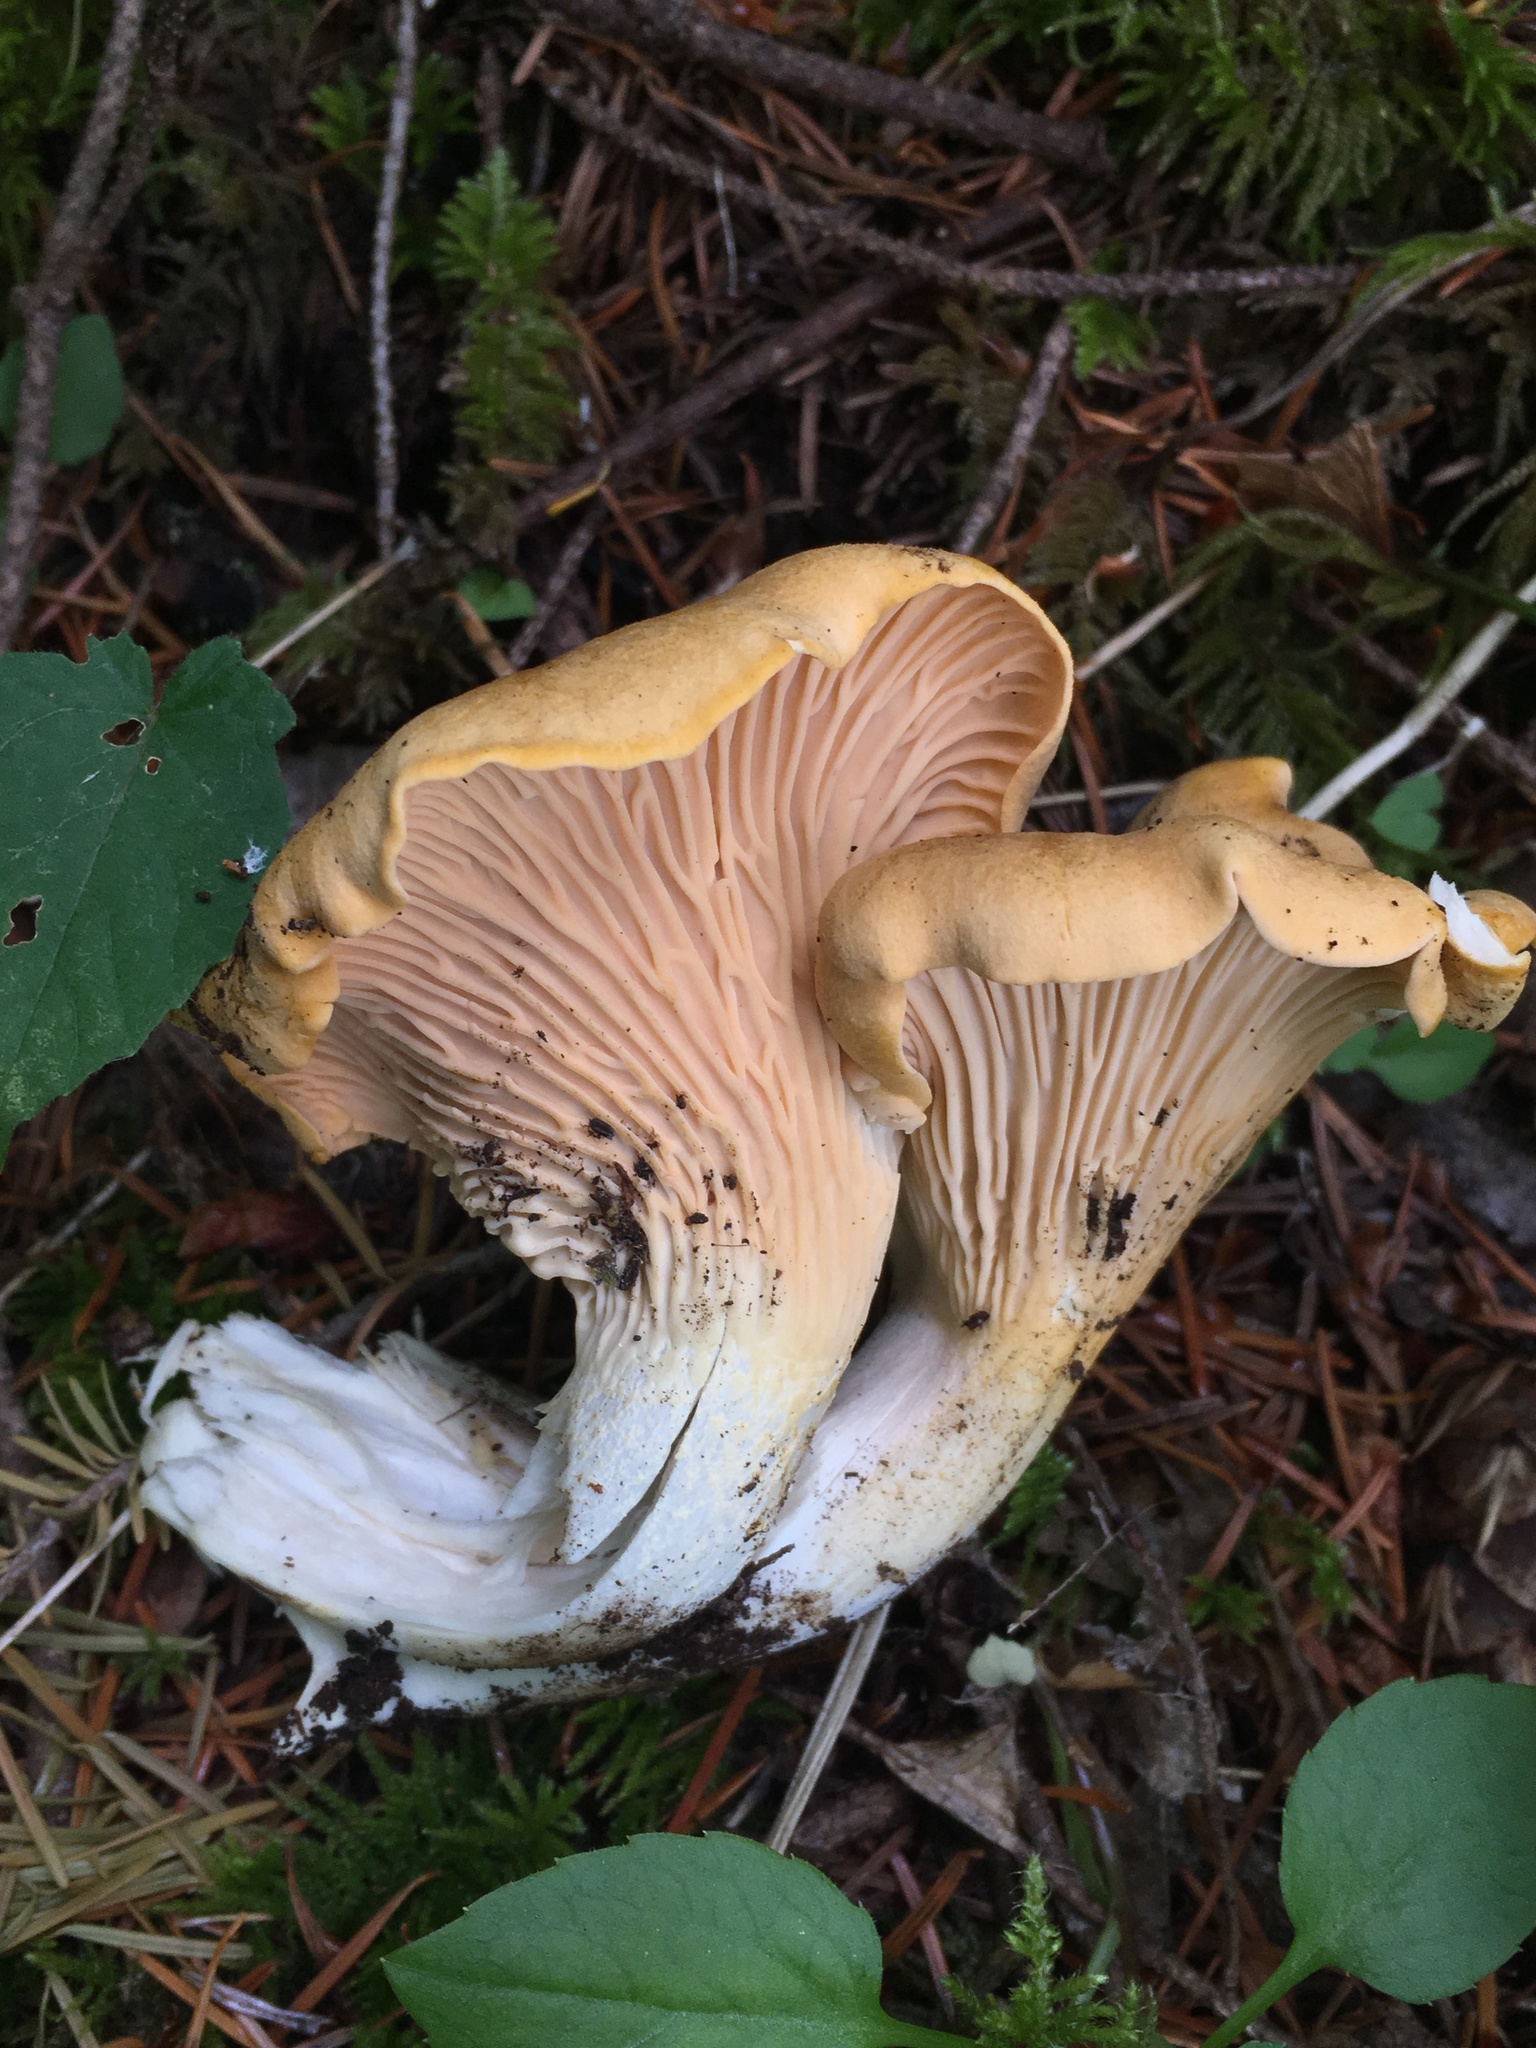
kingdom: Fungi
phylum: Basidiomycota
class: Agaricomycetes
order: Cantharellales
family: Hydnaceae
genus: Cantharellus
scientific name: Cantharellus formosus
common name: Pacific golden chanterelle
